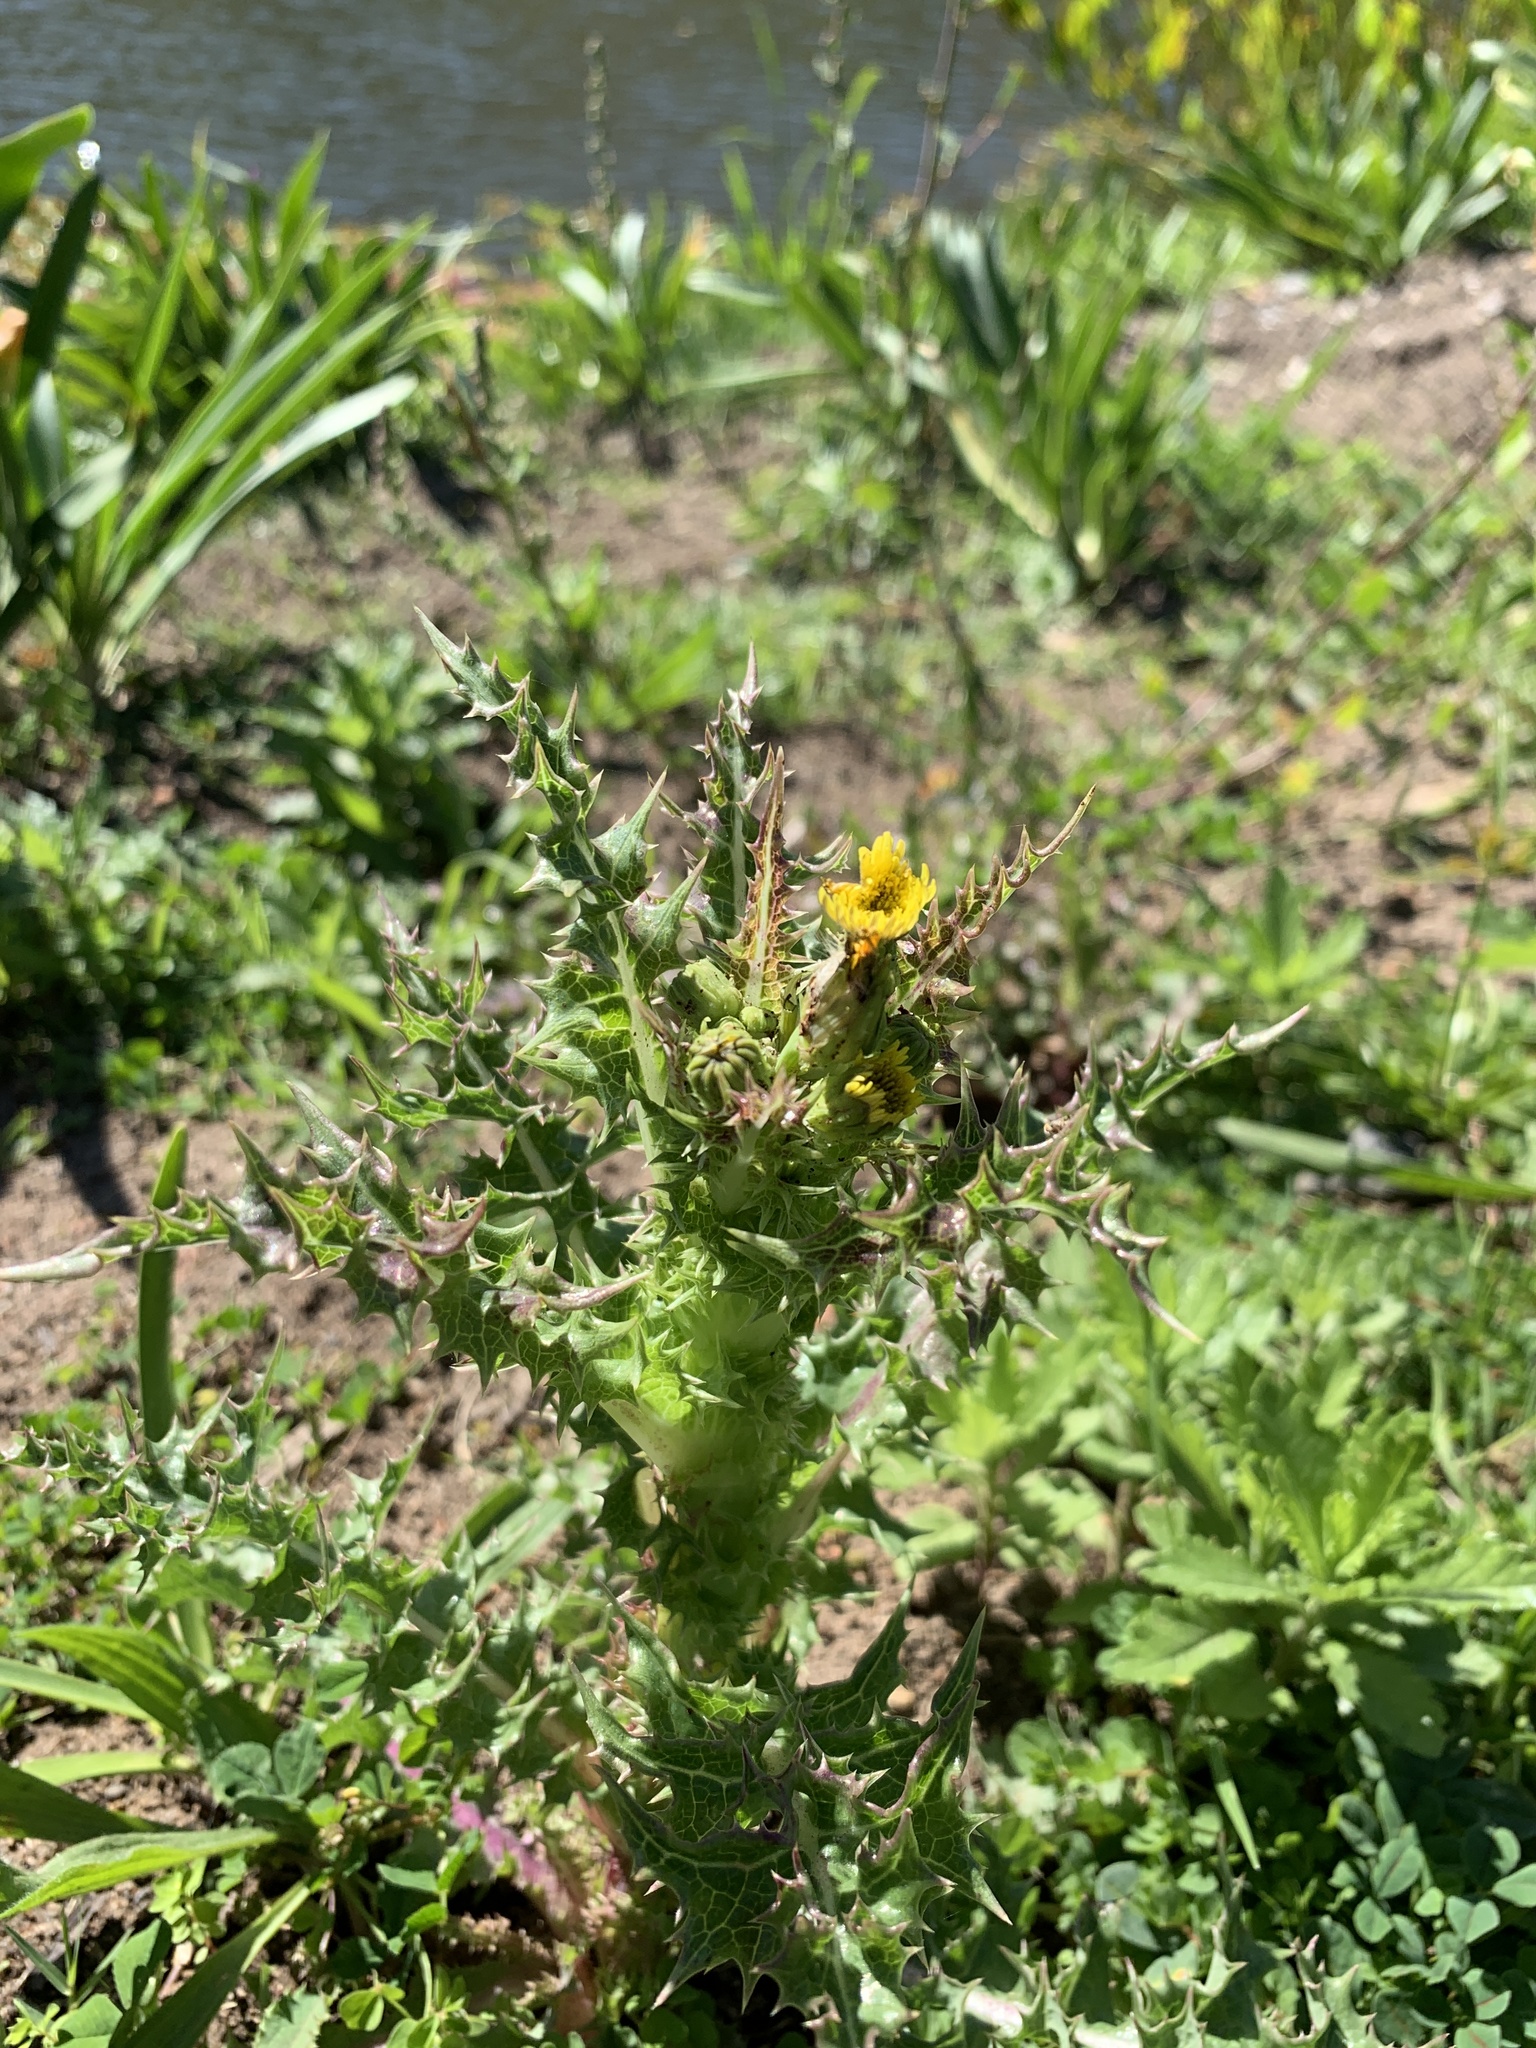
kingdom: Plantae
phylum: Tracheophyta
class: Magnoliopsida
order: Asterales
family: Asteraceae
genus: Sonchus
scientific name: Sonchus asper
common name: Prickly sow-thistle
